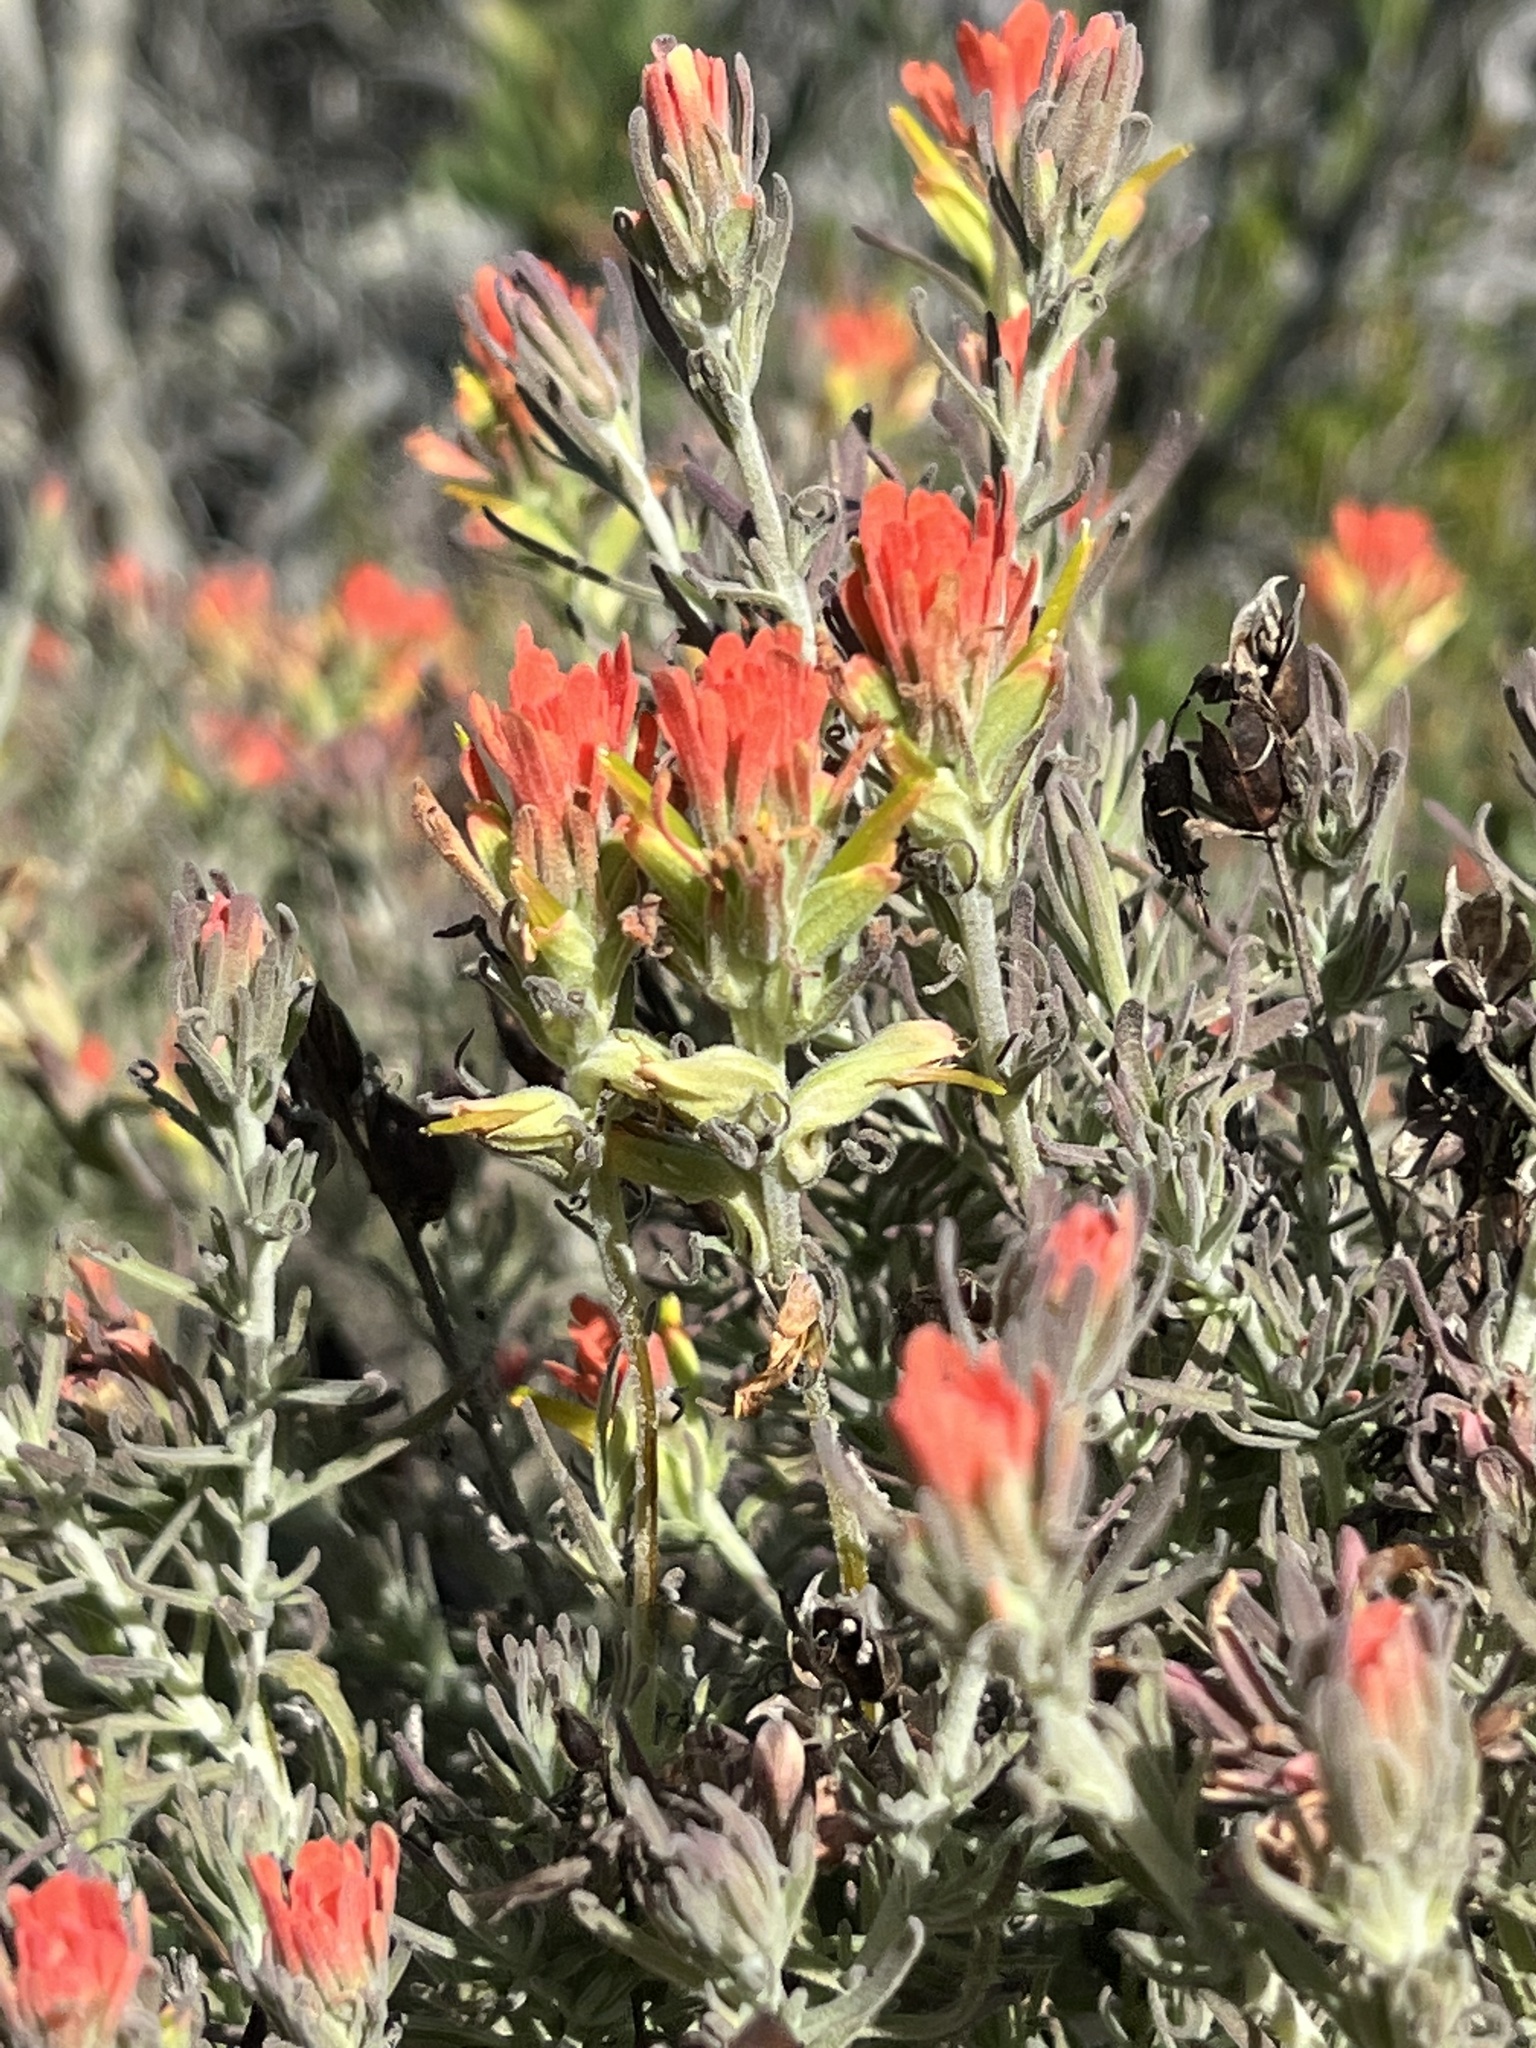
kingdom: Plantae
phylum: Tracheophyta
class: Magnoliopsida
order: Lamiales
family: Orobanchaceae
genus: Castilleja
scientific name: Castilleja foliolosa
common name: Woolly indian paintbrush
